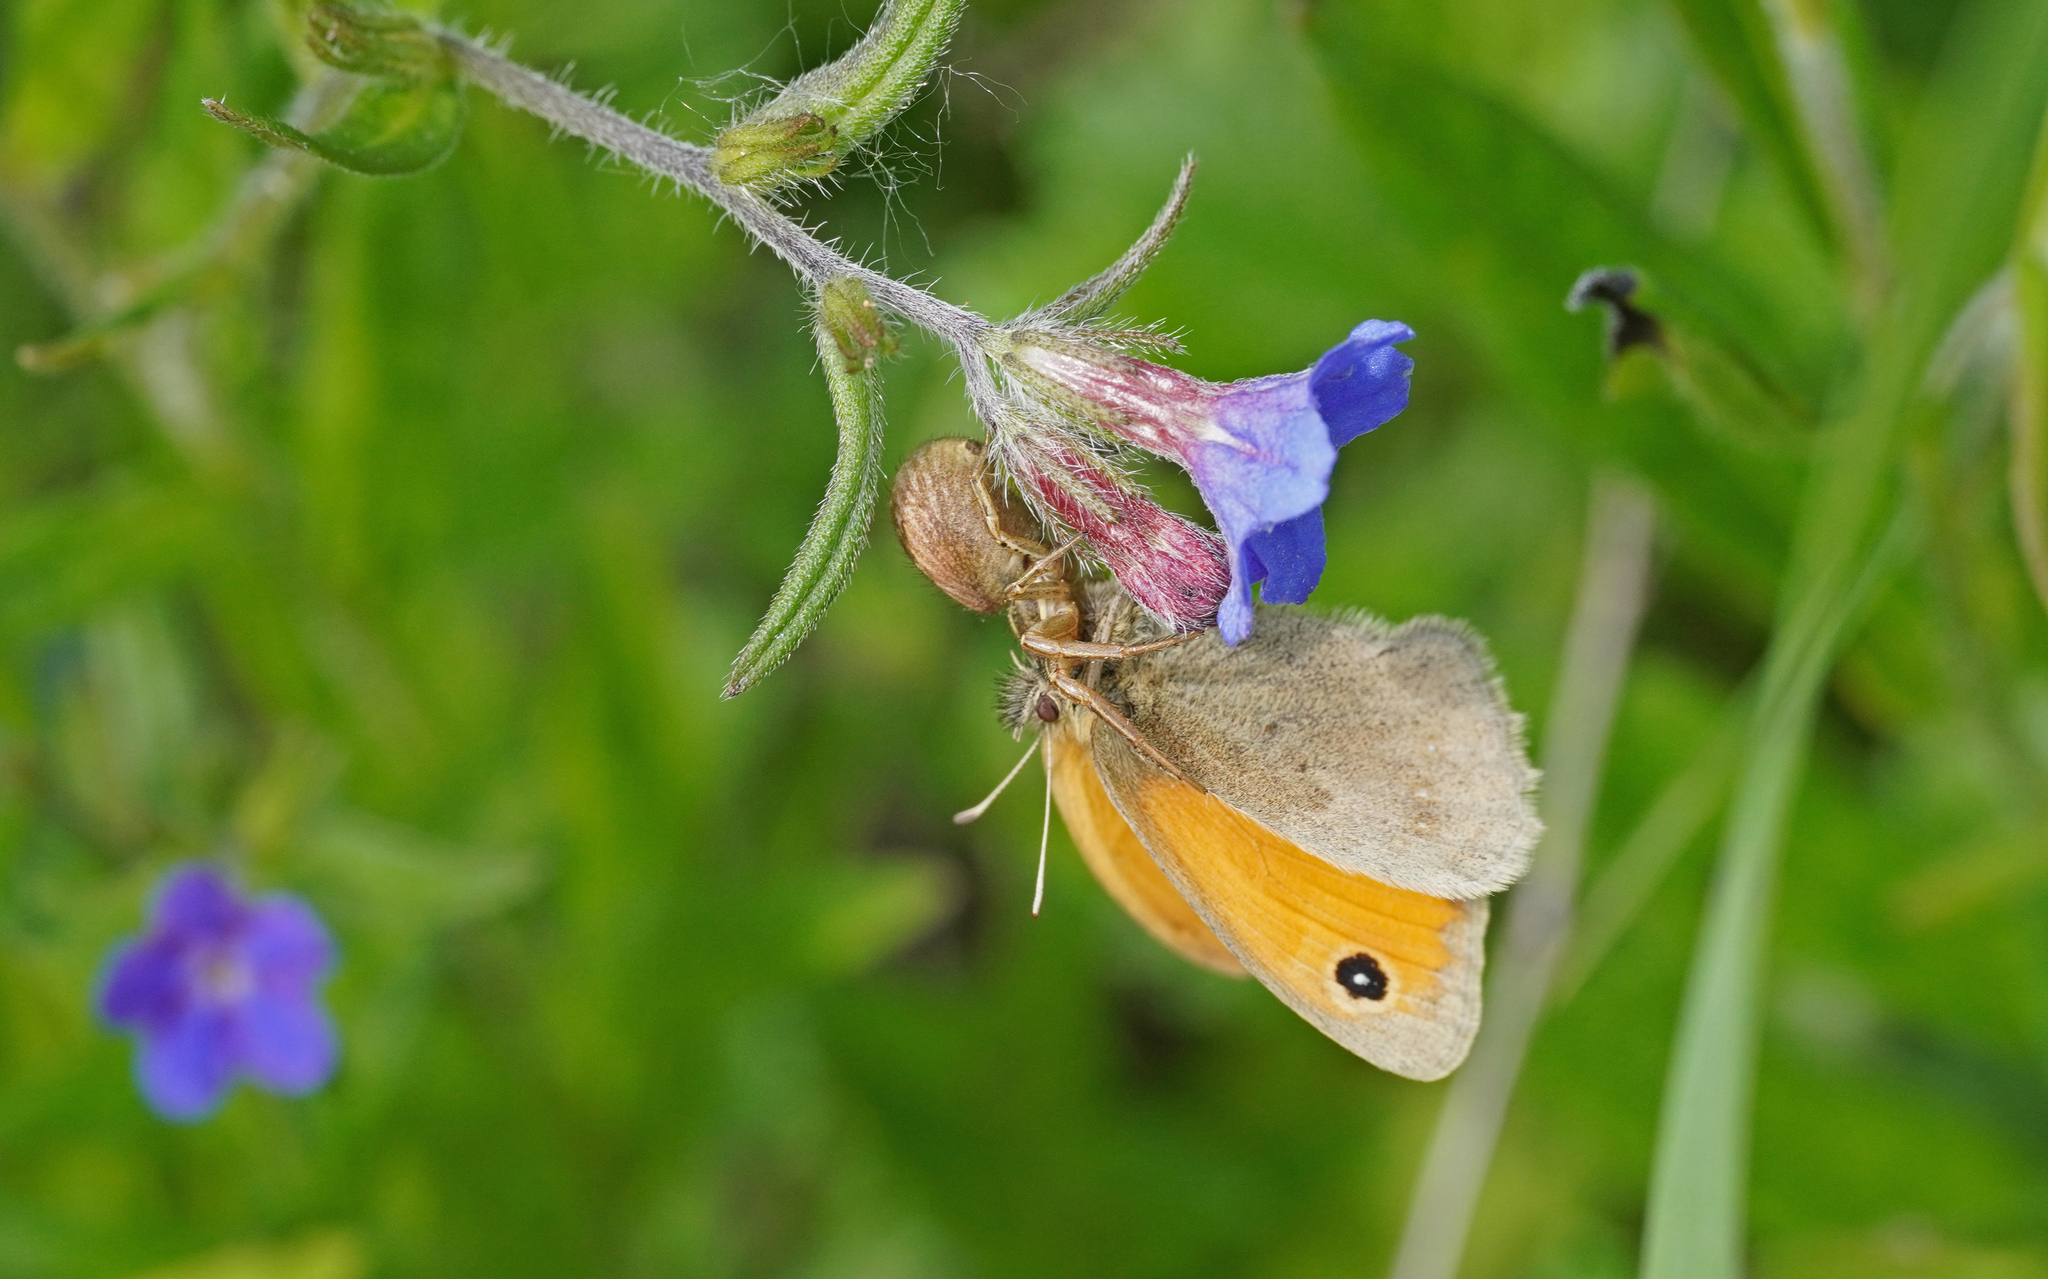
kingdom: Animalia
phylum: Arthropoda
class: Insecta
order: Lepidoptera
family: Nymphalidae
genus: Coenonympha
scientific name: Coenonympha pamphilus
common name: Small heath
